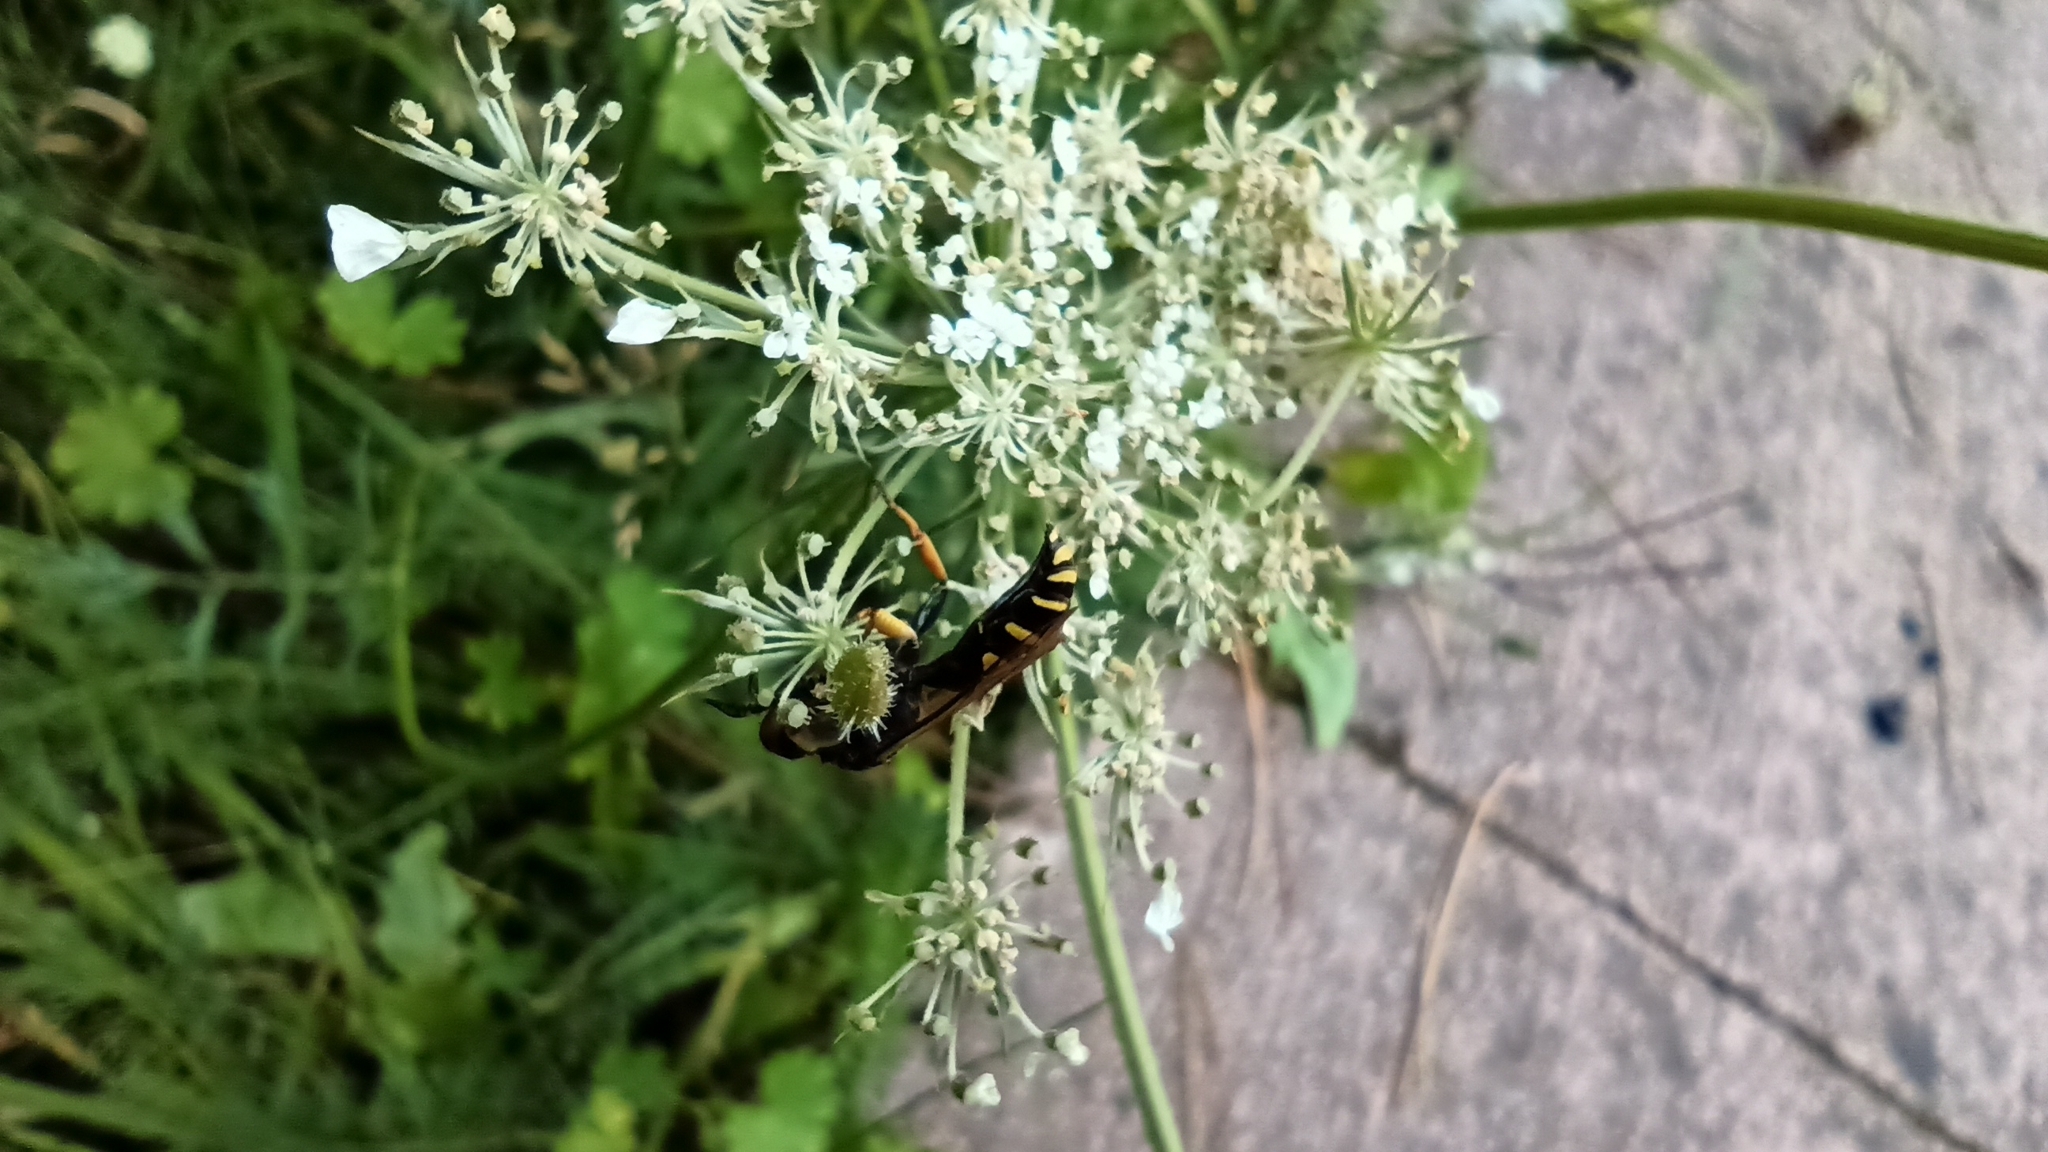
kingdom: Animalia
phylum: Arthropoda
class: Insecta
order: Hymenoptera
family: Crabronidae
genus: Crabro
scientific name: Crabro cribrarius
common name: Slender bodied digger wasp
